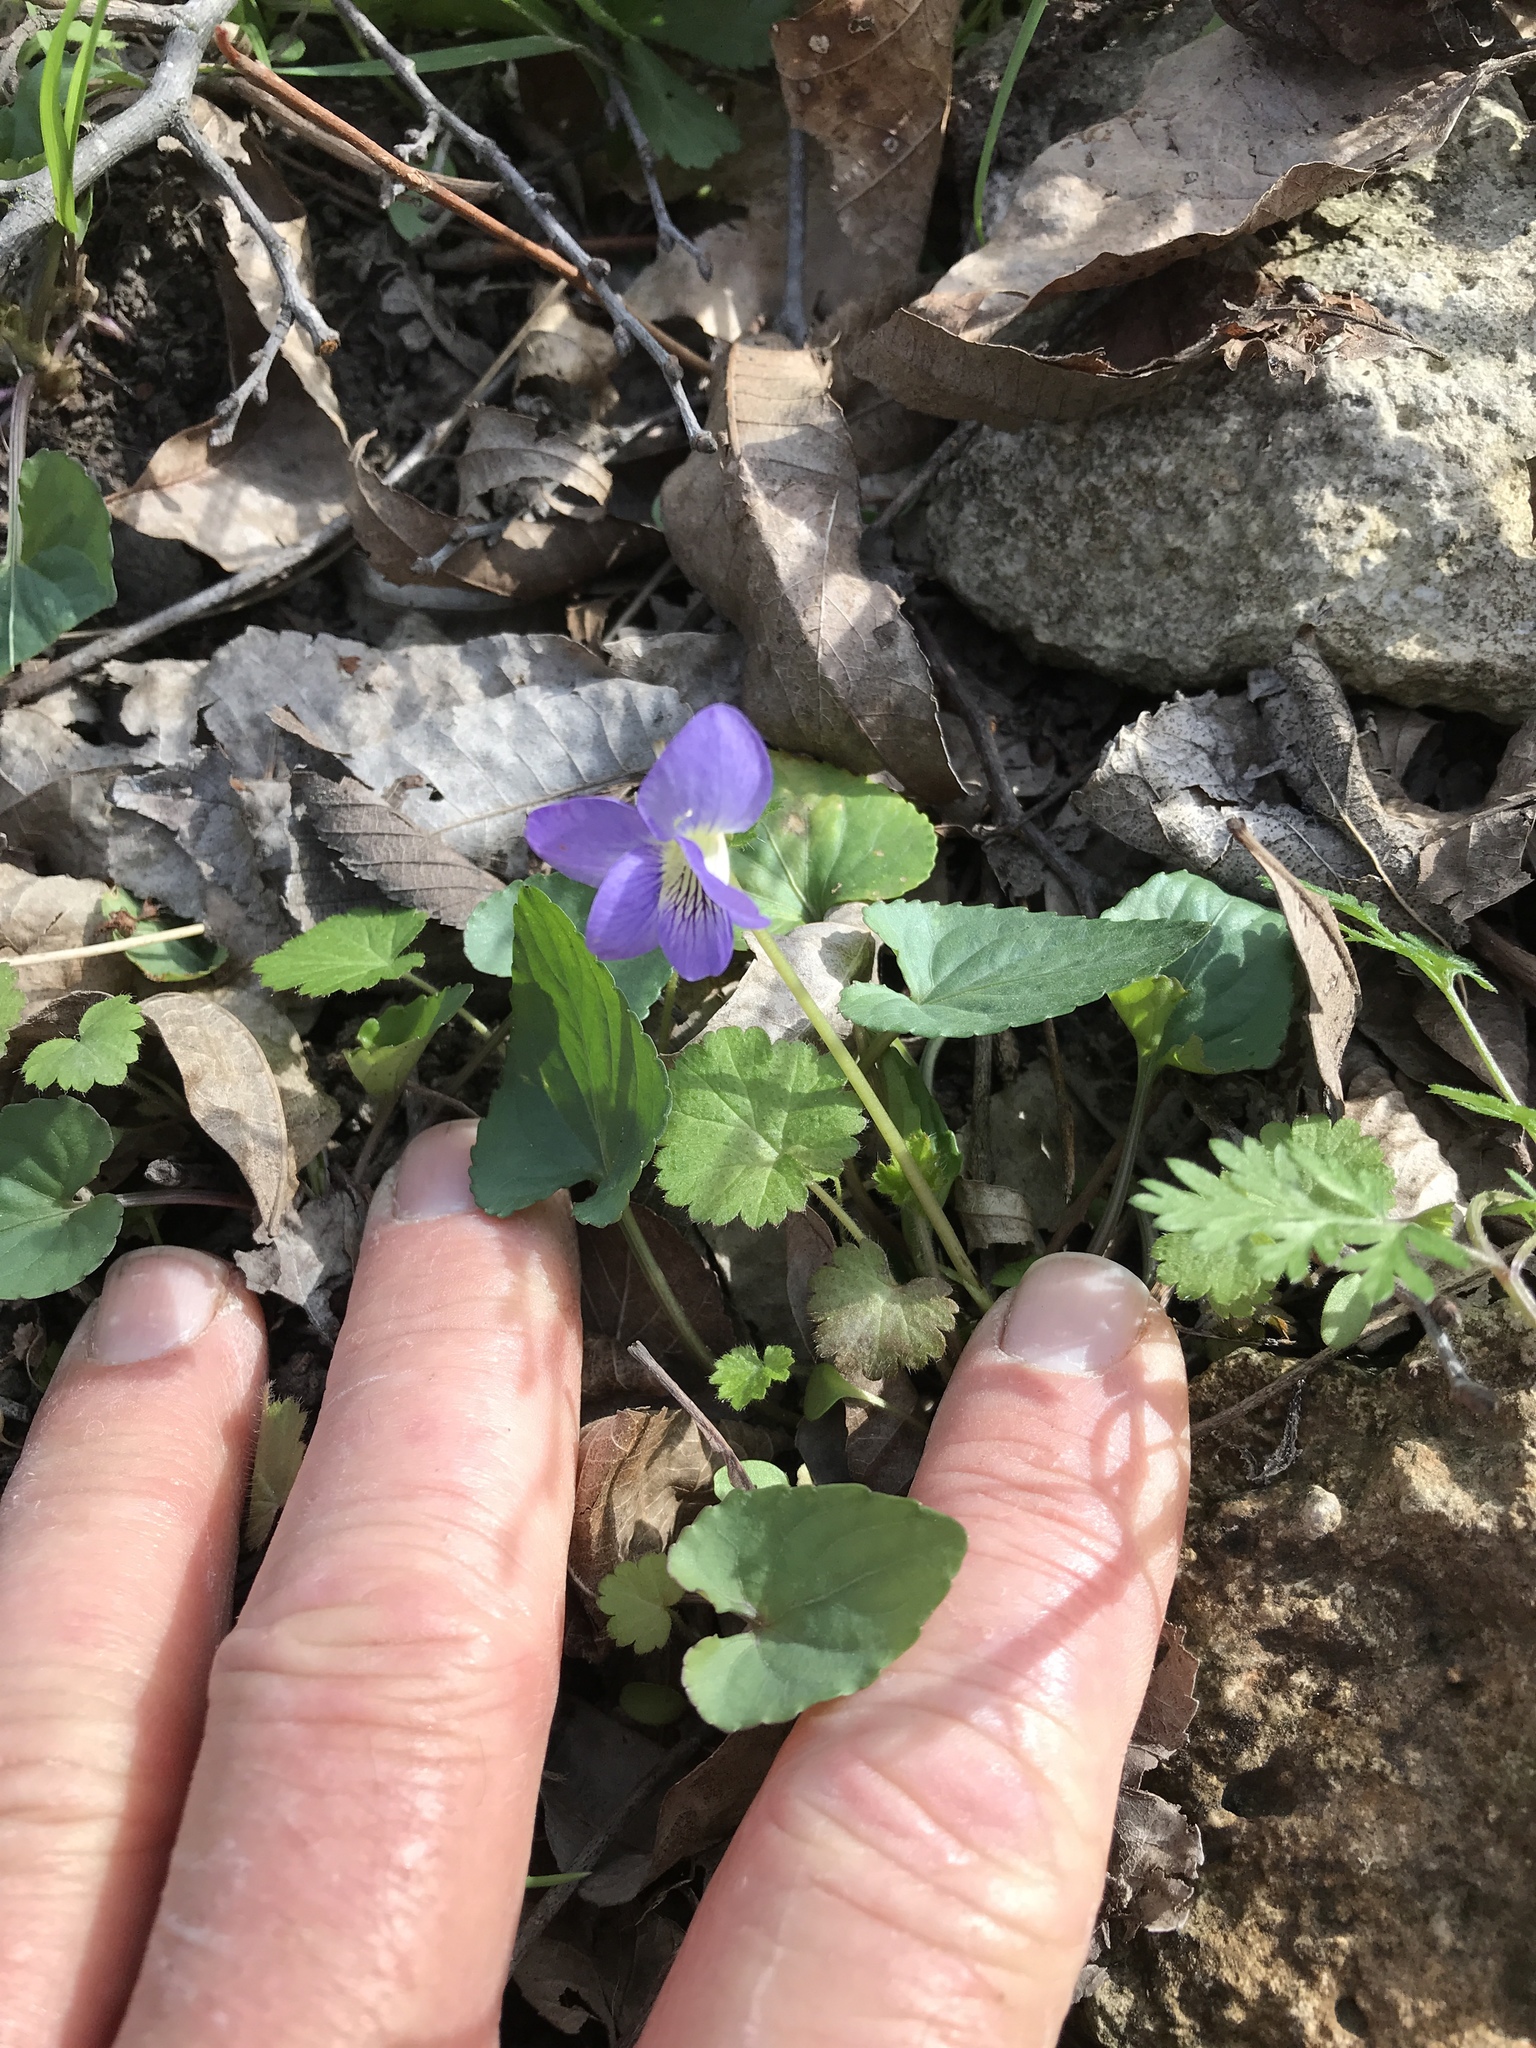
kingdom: Plantae
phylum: Tracheophyta
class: Magnoliopsida
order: Malpighiales
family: Violaceae
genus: Viola
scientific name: Viola sororia
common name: Dooryard violet
